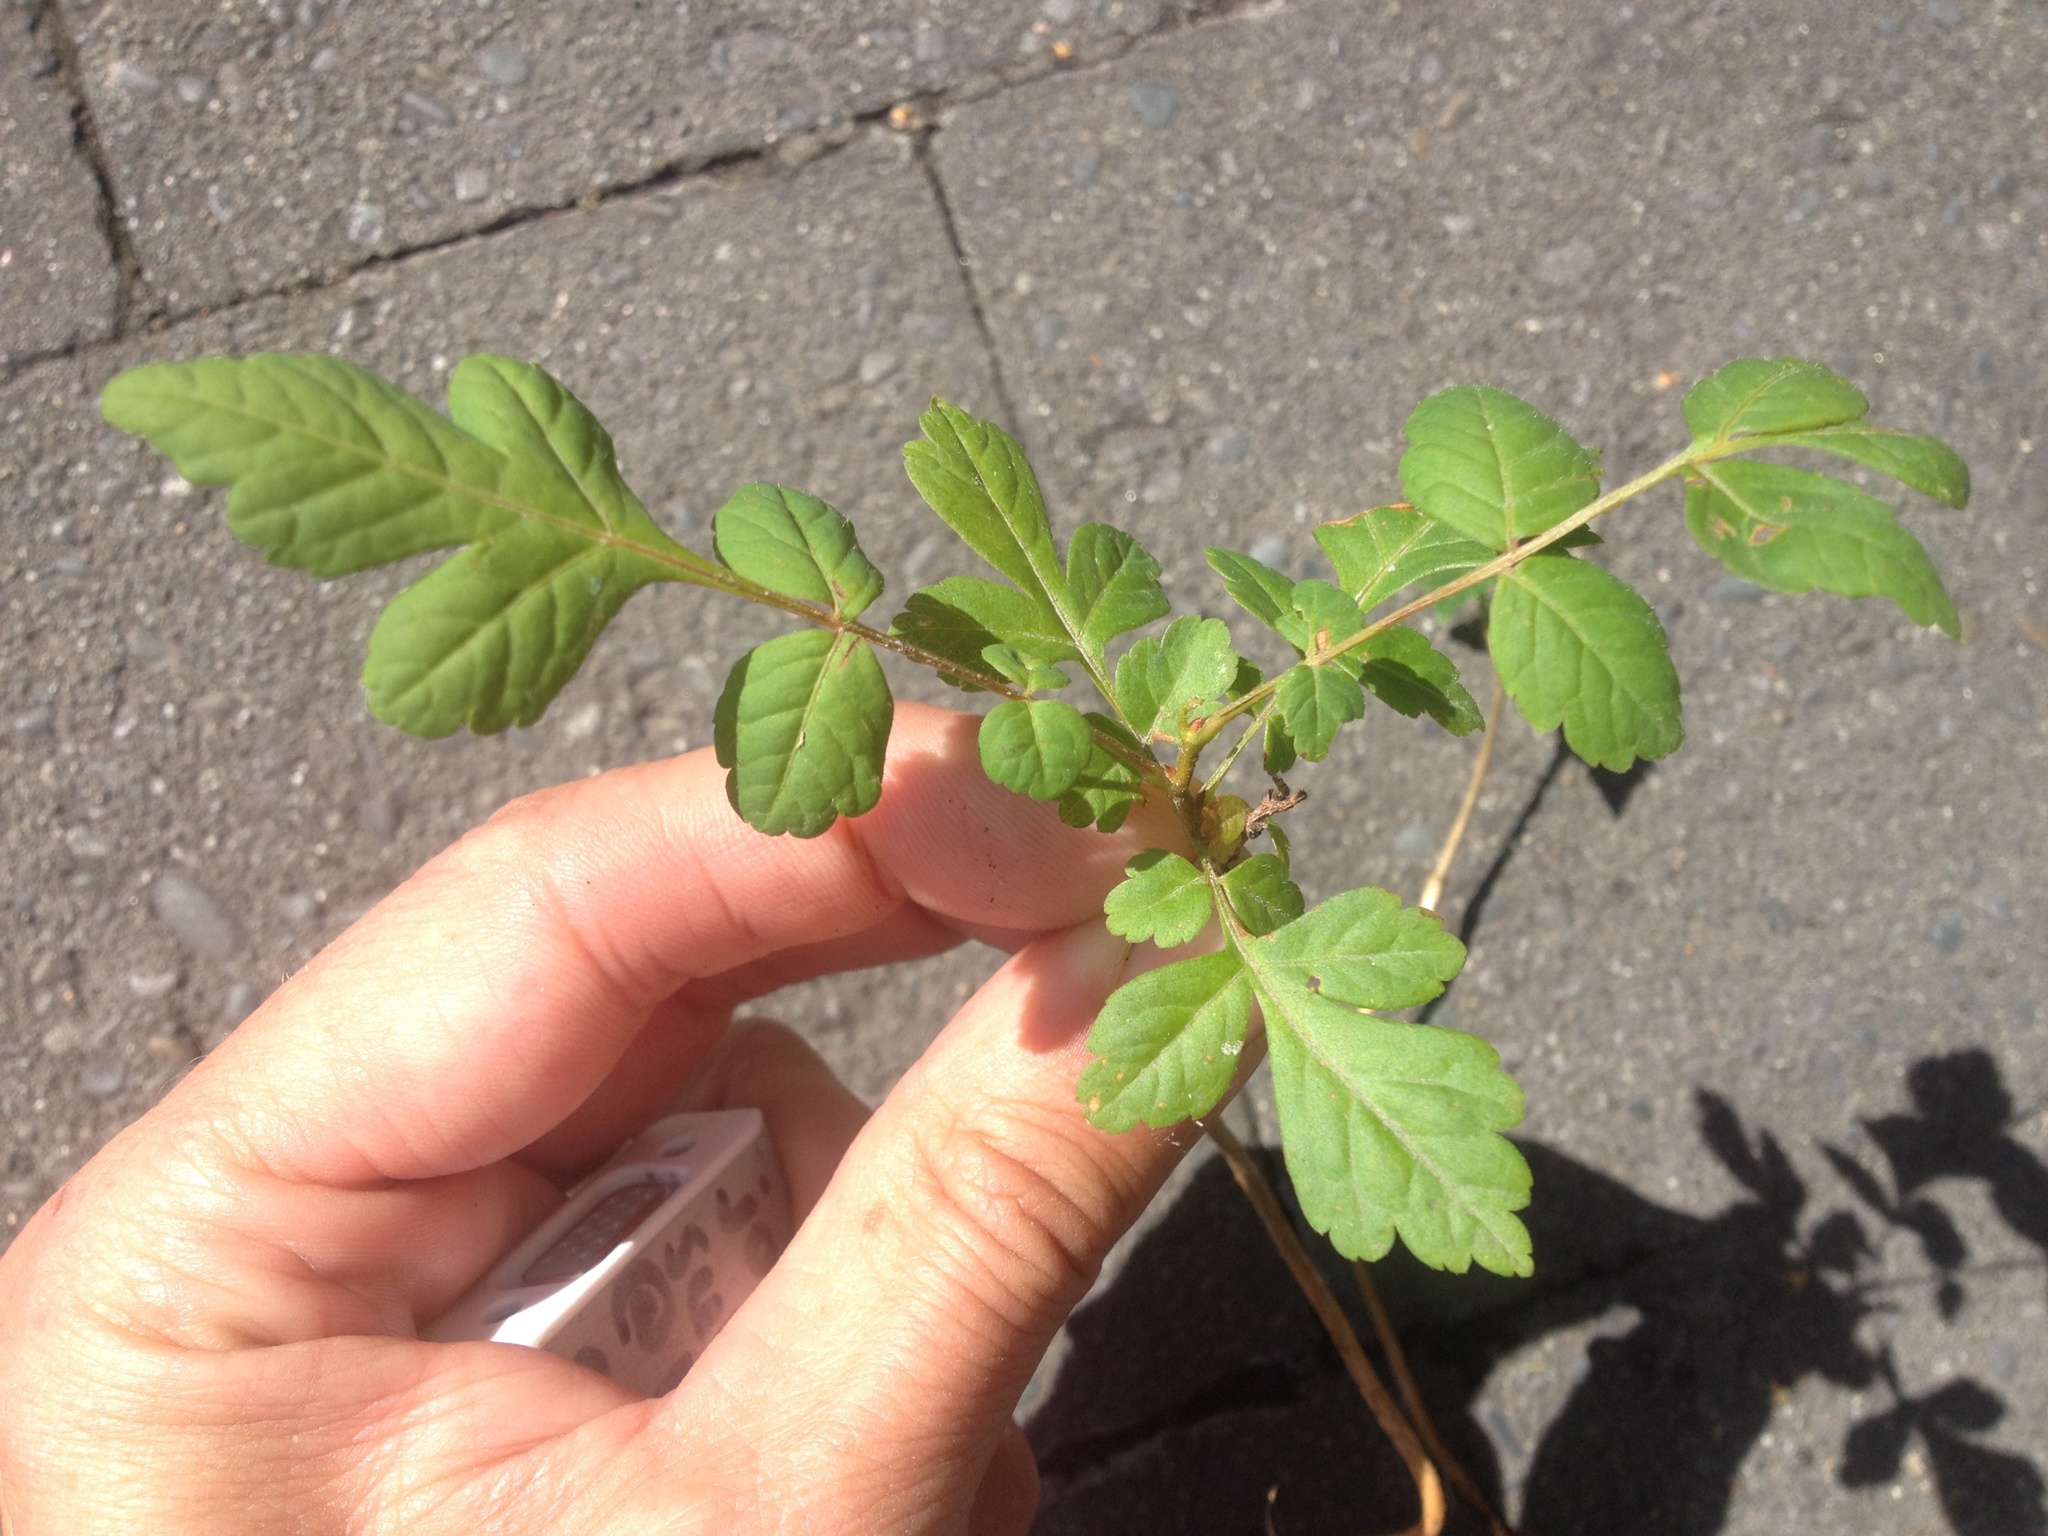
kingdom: Plantae
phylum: Tracheophyta
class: Magnoliopsida
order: Sapindales
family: Sapindaceae
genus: Koelreuteria
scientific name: Koelreuteria paniculata
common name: Pride-of-india
